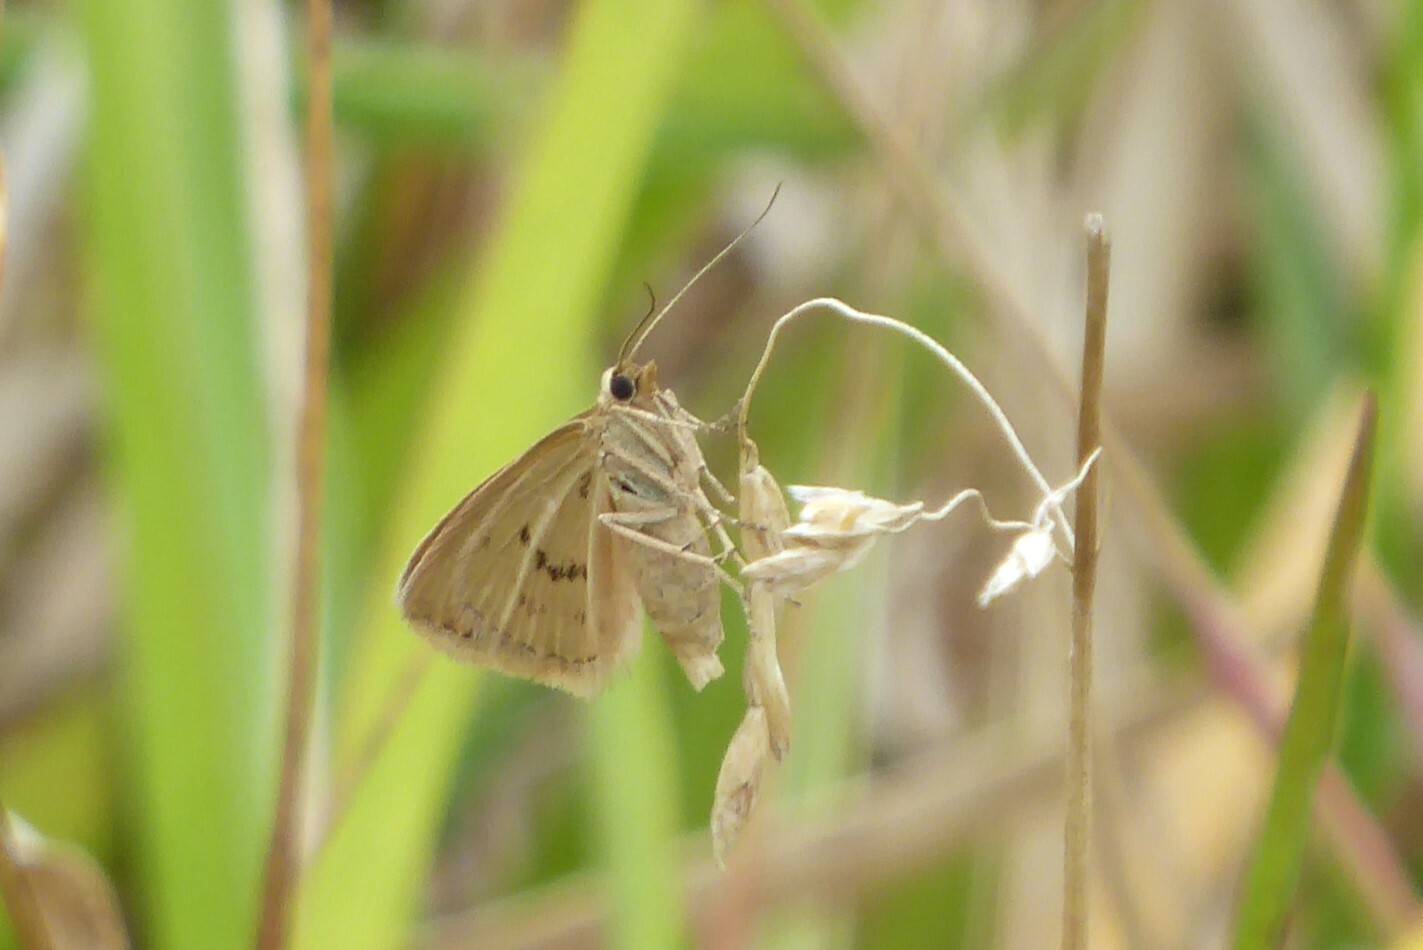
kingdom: Animalia
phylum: Arthropoda
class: Insecta
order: Lepidoptera
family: Geometridae
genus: Asaphodes
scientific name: Asaphodes abrogata
